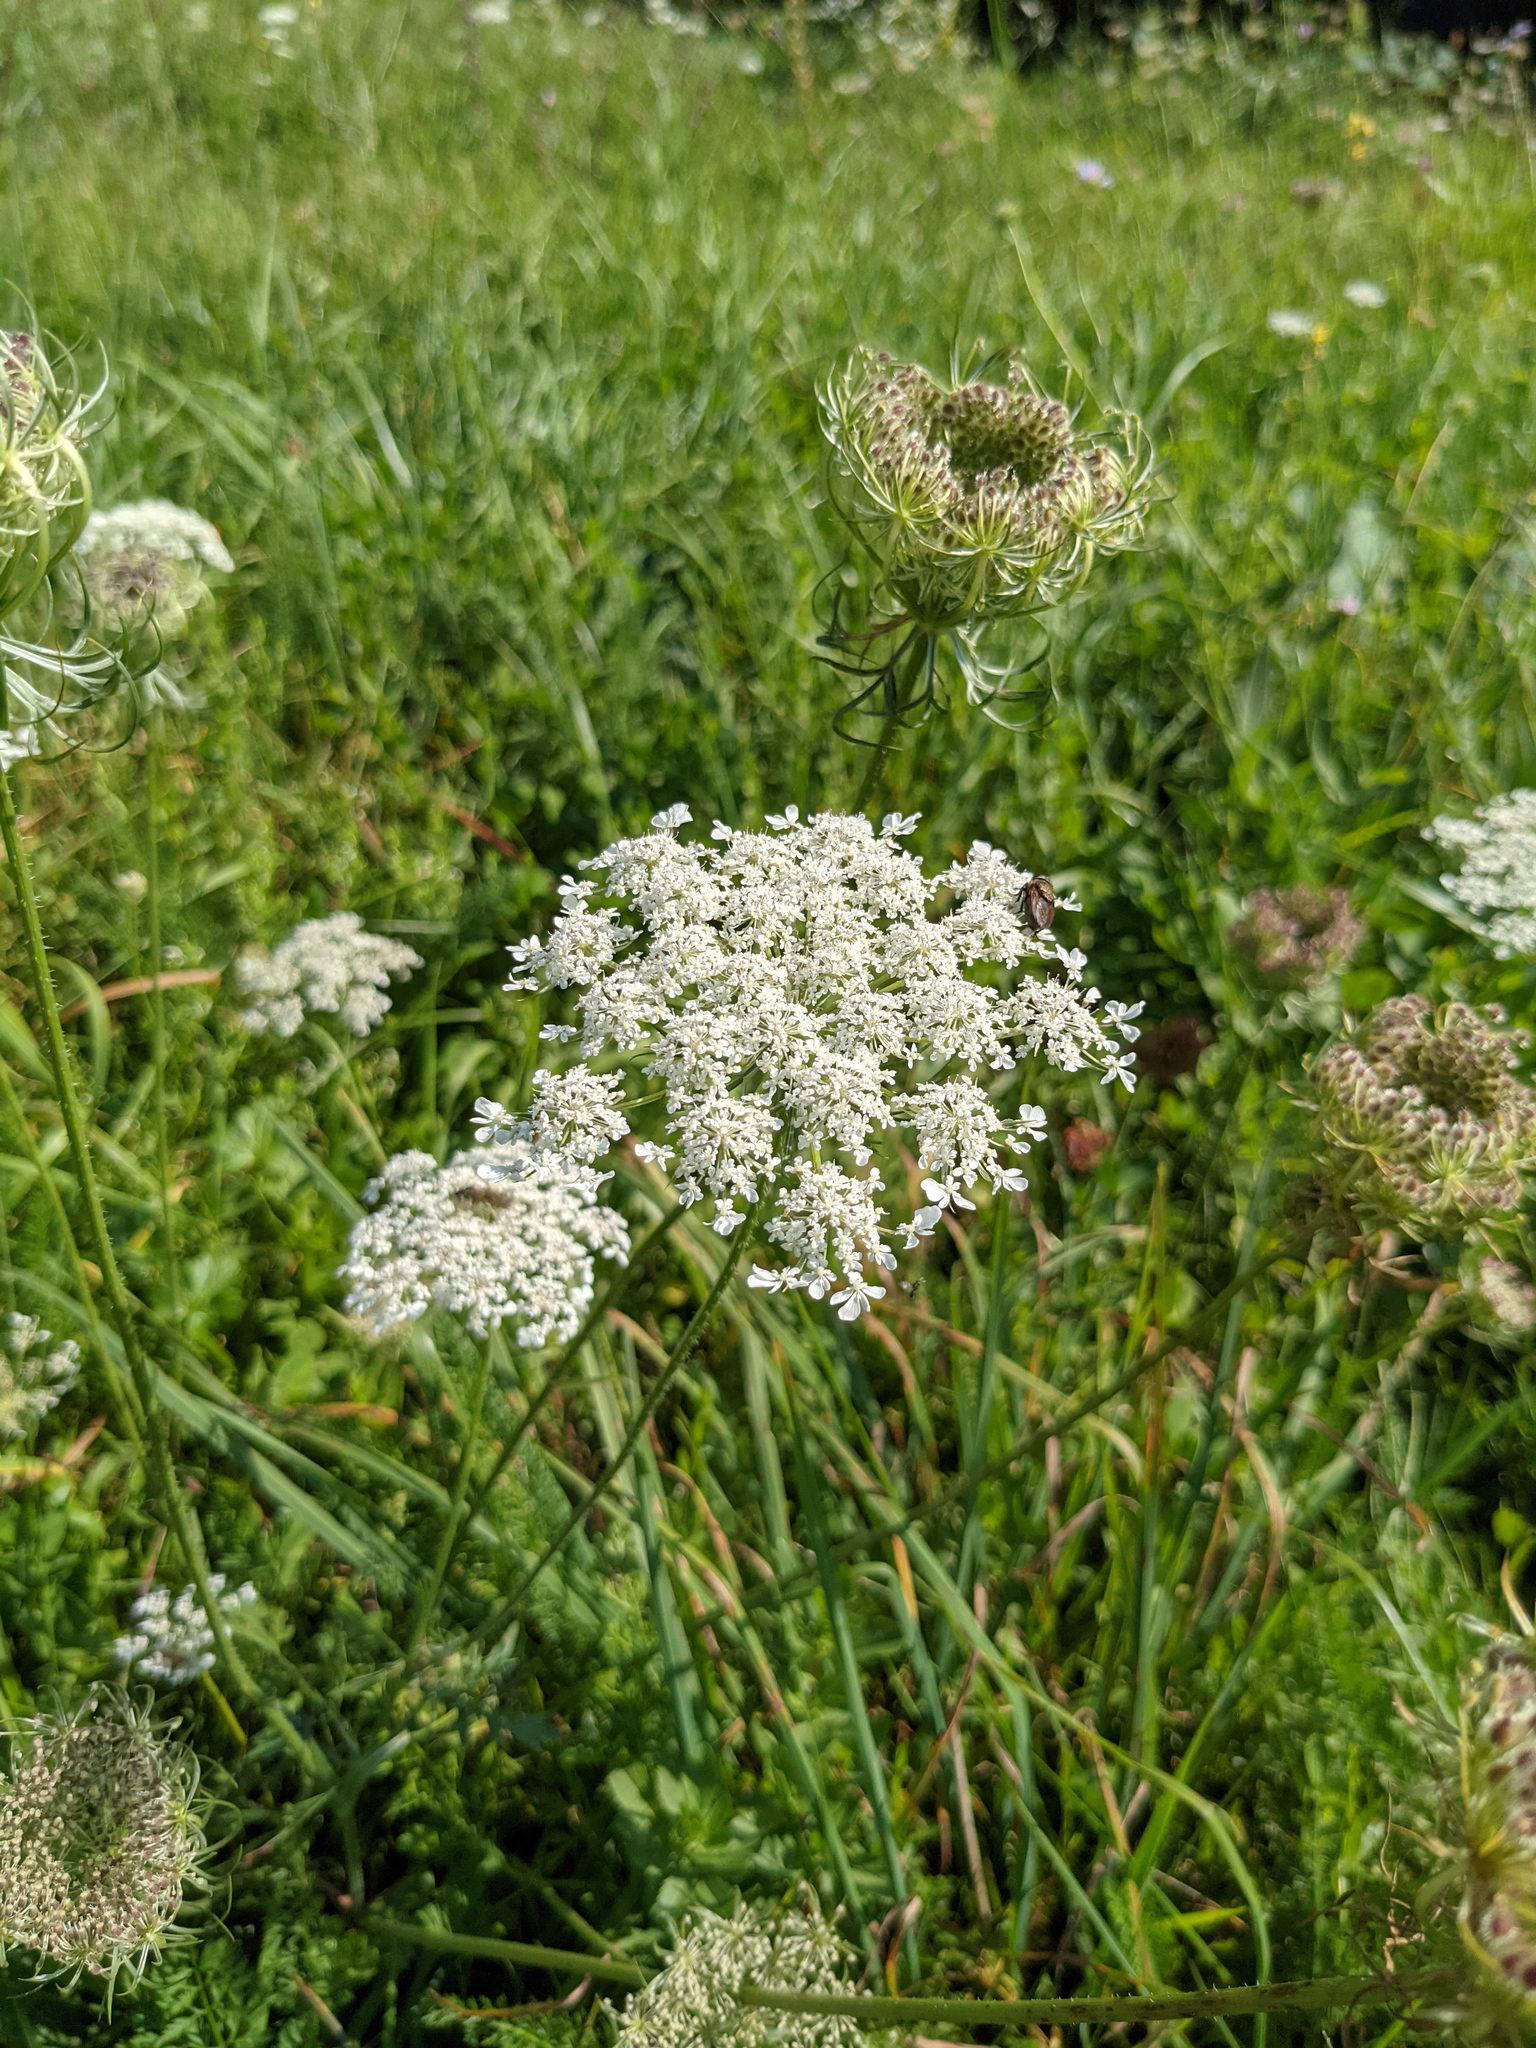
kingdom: Plantae
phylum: Tracheophyta
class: Magnoliopsida
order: Apiales
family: Apiaceae
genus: Daucus
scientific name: Daucus carota
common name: Wild carrot
